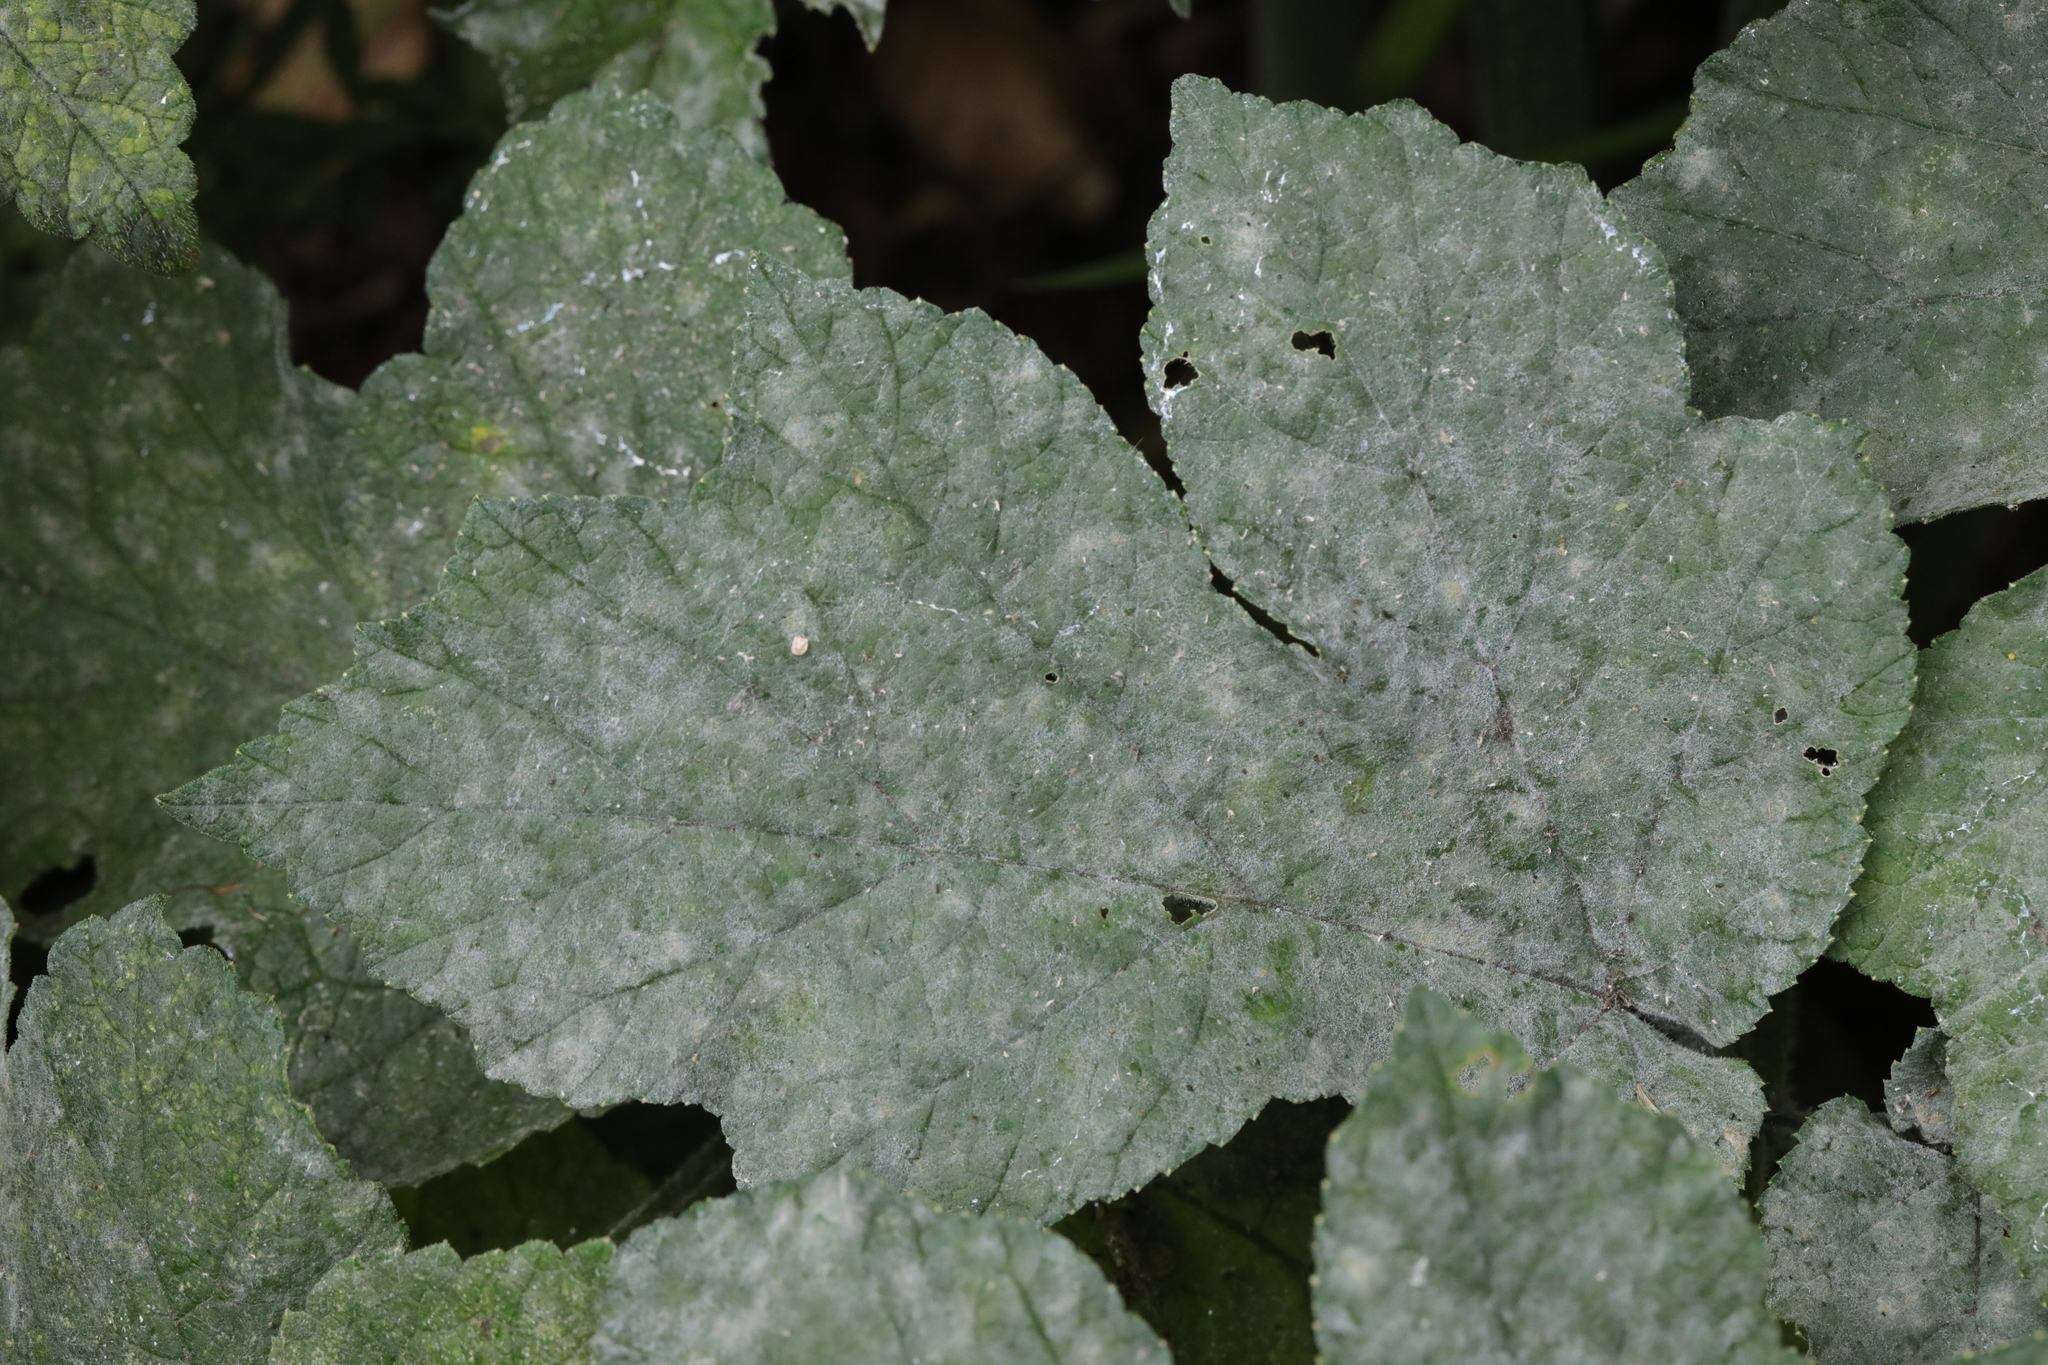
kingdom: Fungi
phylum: Ascomycota
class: Leotiomycetes
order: Helotiales
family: Erysiphaceae
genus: Erysiphe
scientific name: Erysiphe heraclei
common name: Umbellifer mildew
